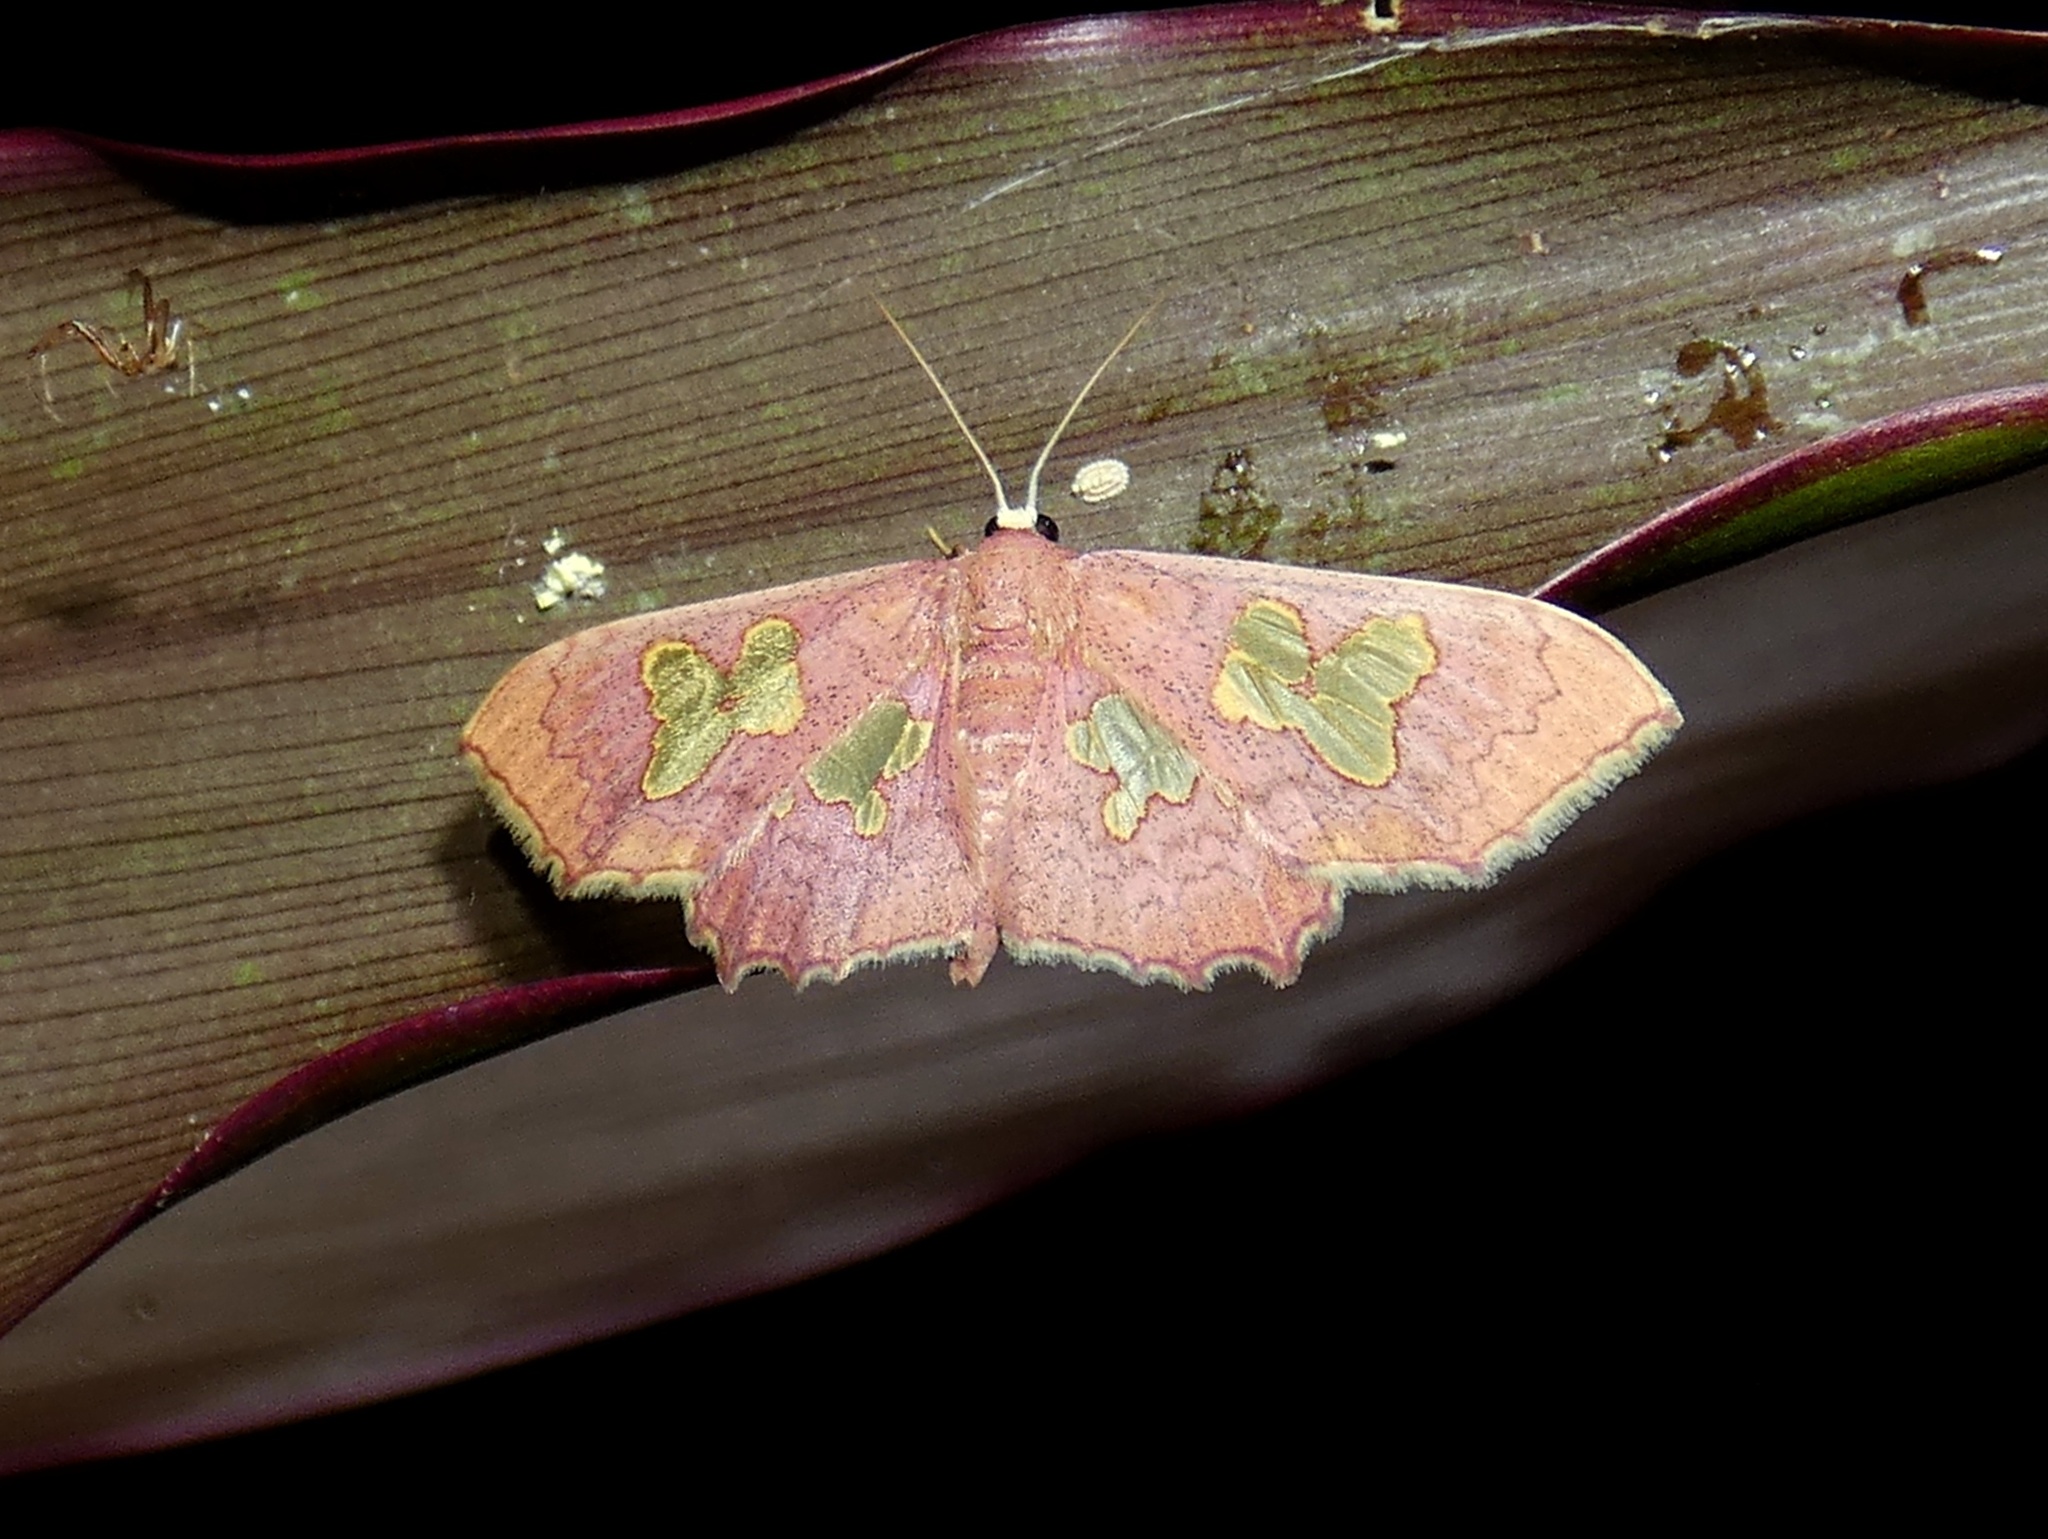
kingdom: Animalia
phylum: Arthropoda
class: Insecta
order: Lepidoptera
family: Geometridae
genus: Pseudasellodes
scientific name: Pseudasellodes laternaria
